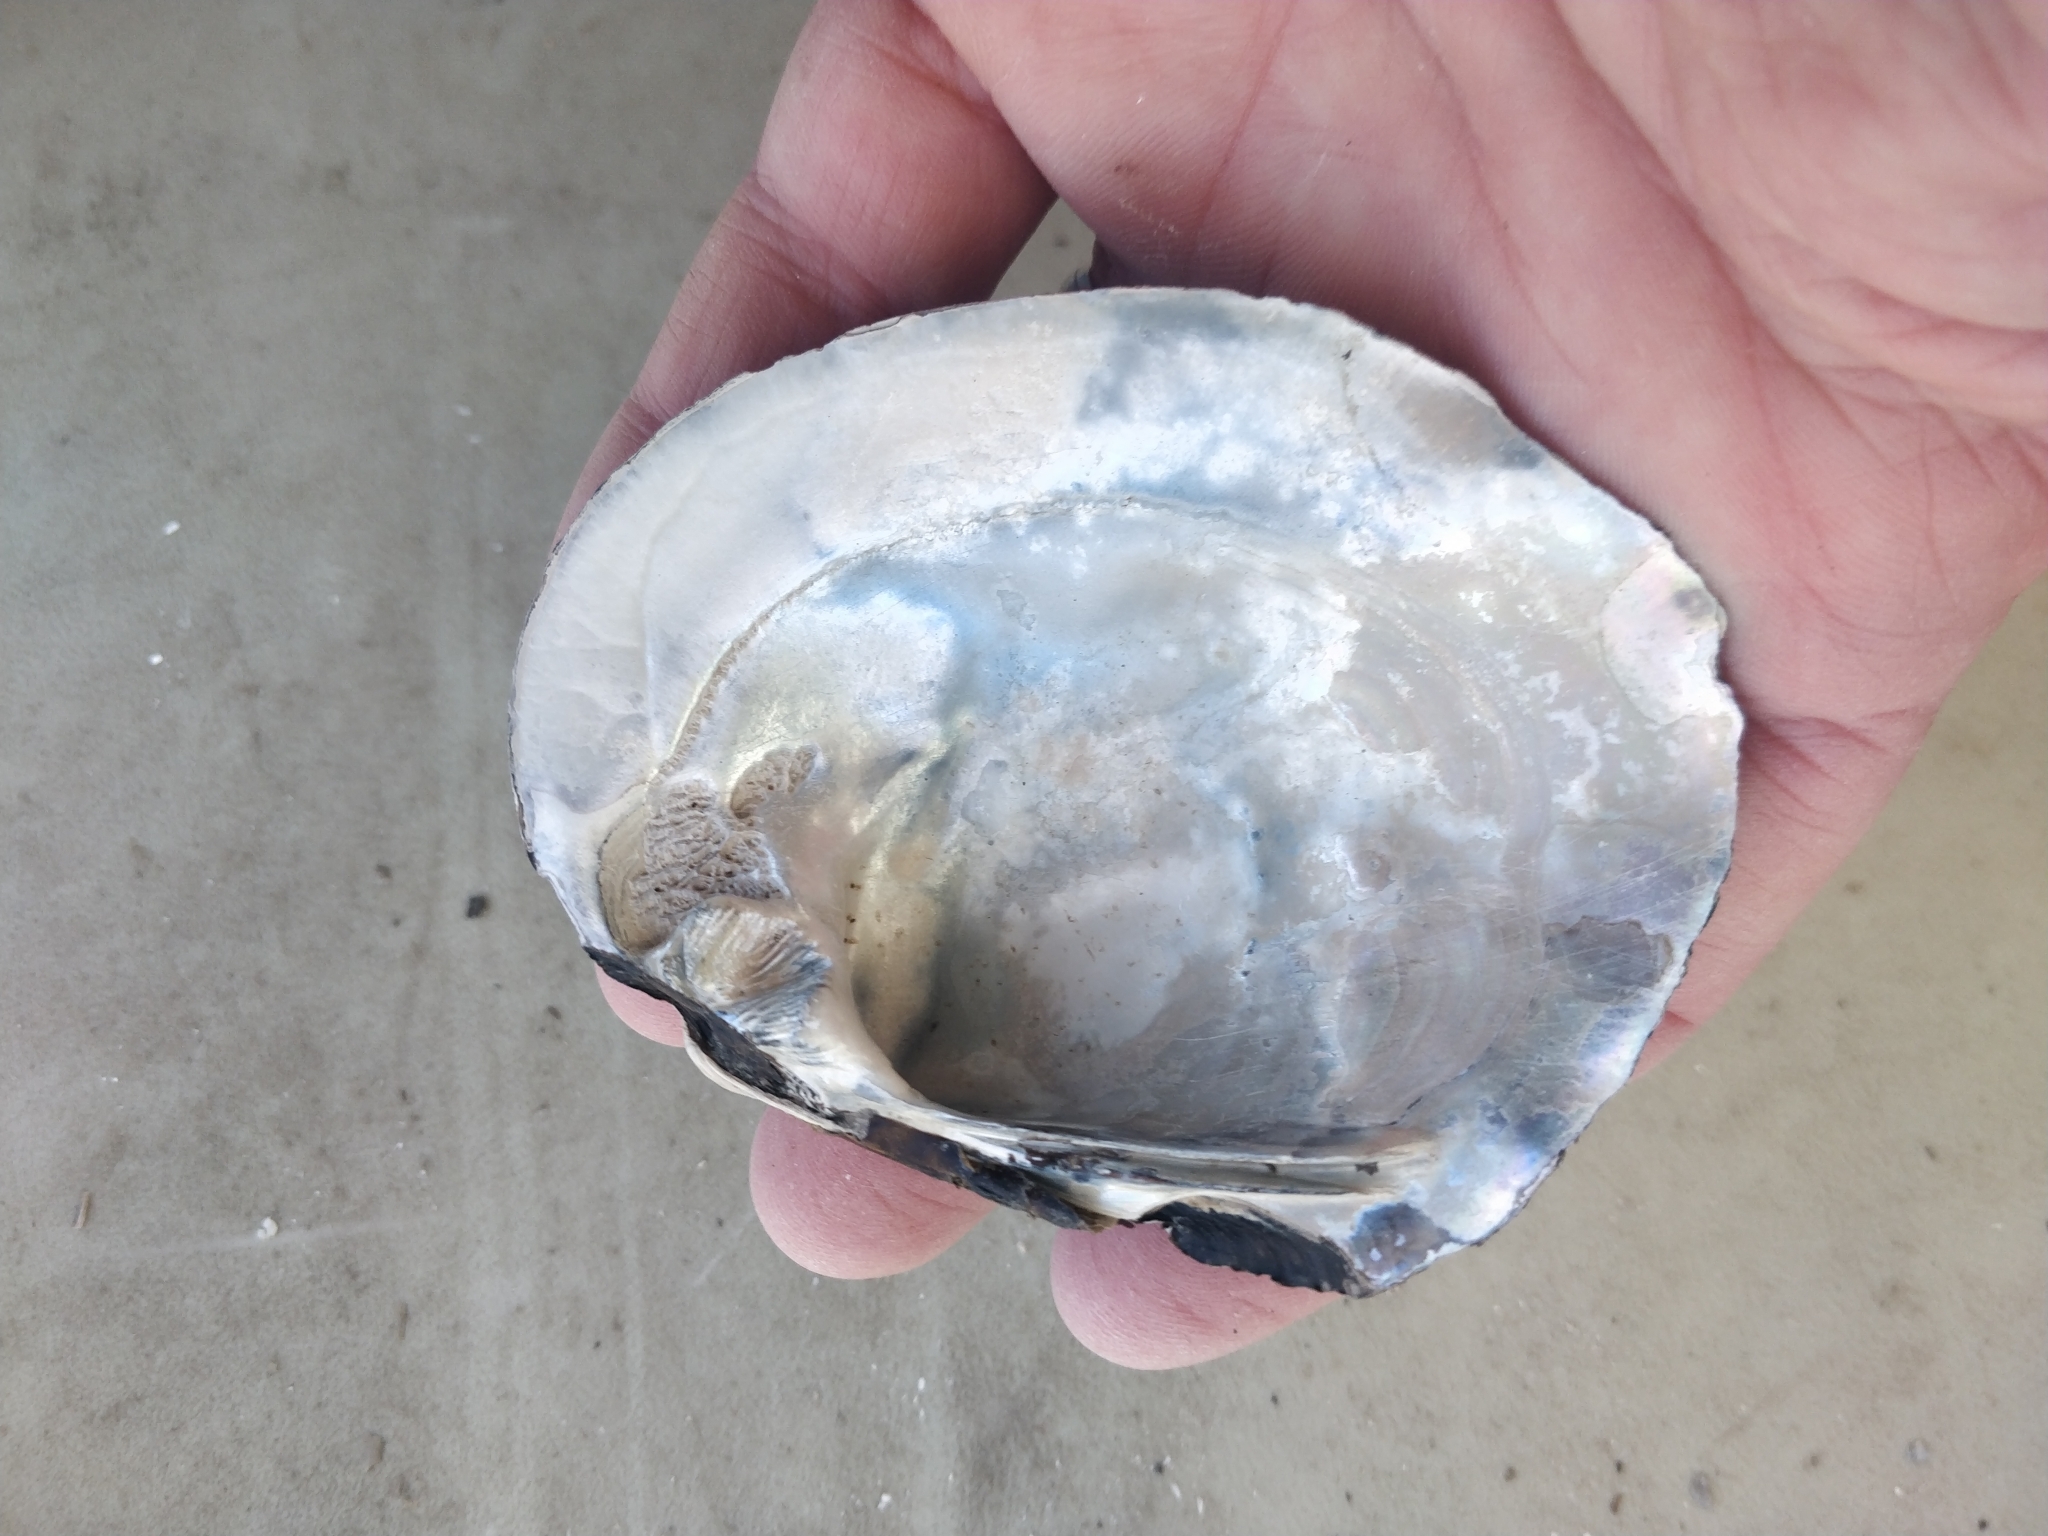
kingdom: Animalia
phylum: Mollusca
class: Bivalvia
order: Unionida
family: Unionidae
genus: Amblema
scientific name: Amblema plicata
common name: Threeridge
